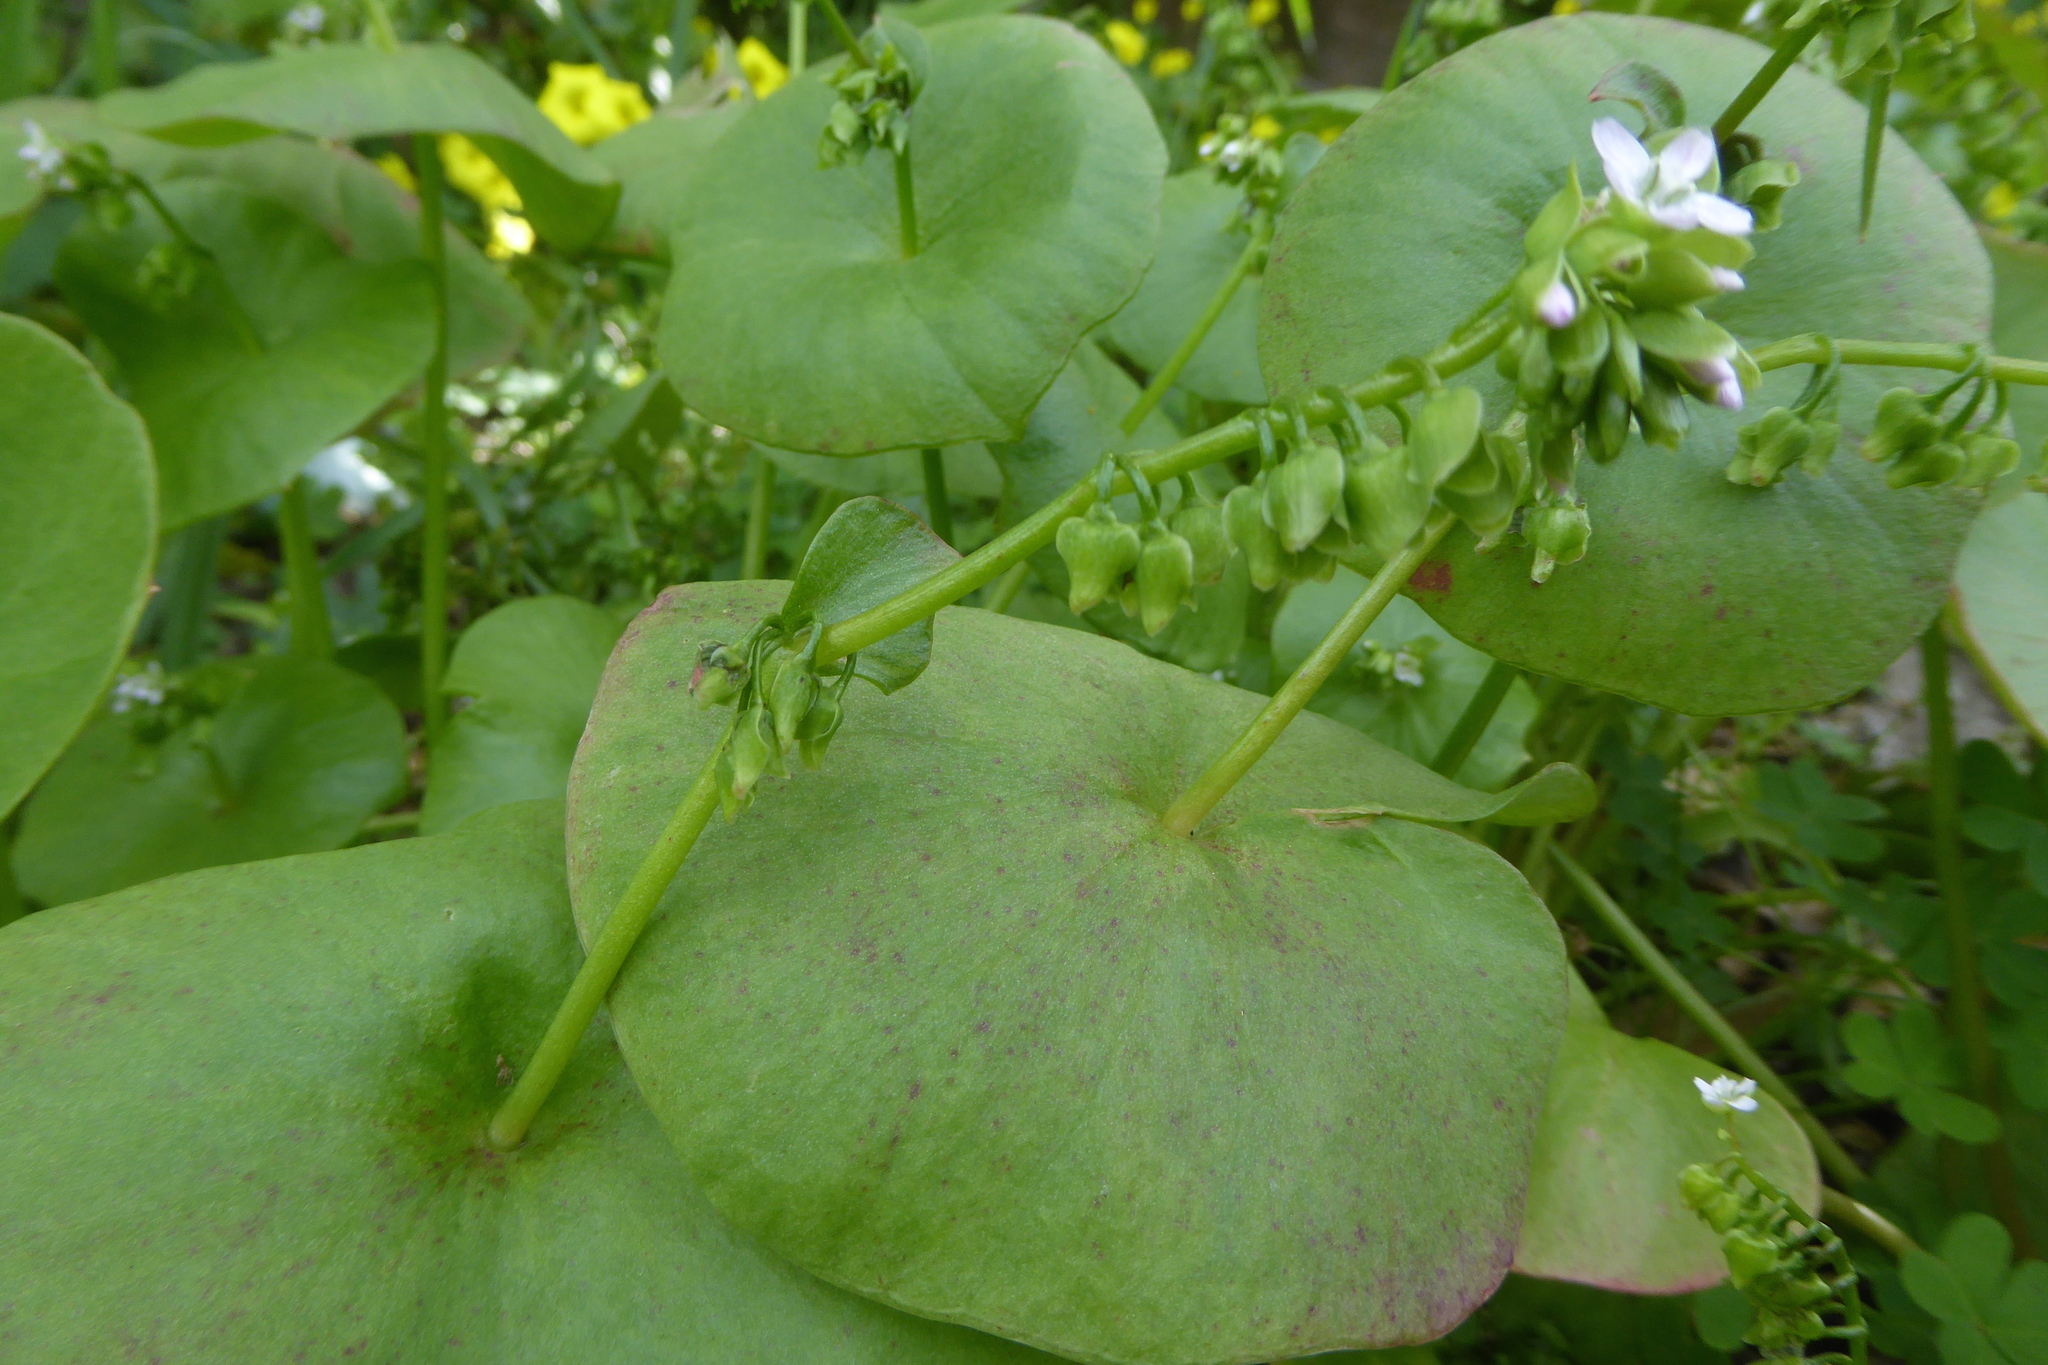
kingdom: Plantae
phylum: Tracheophyta
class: Magnoliopsida
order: Caryophyllales
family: Montiaceae
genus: Claytonia
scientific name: Claytonia perfoliata
